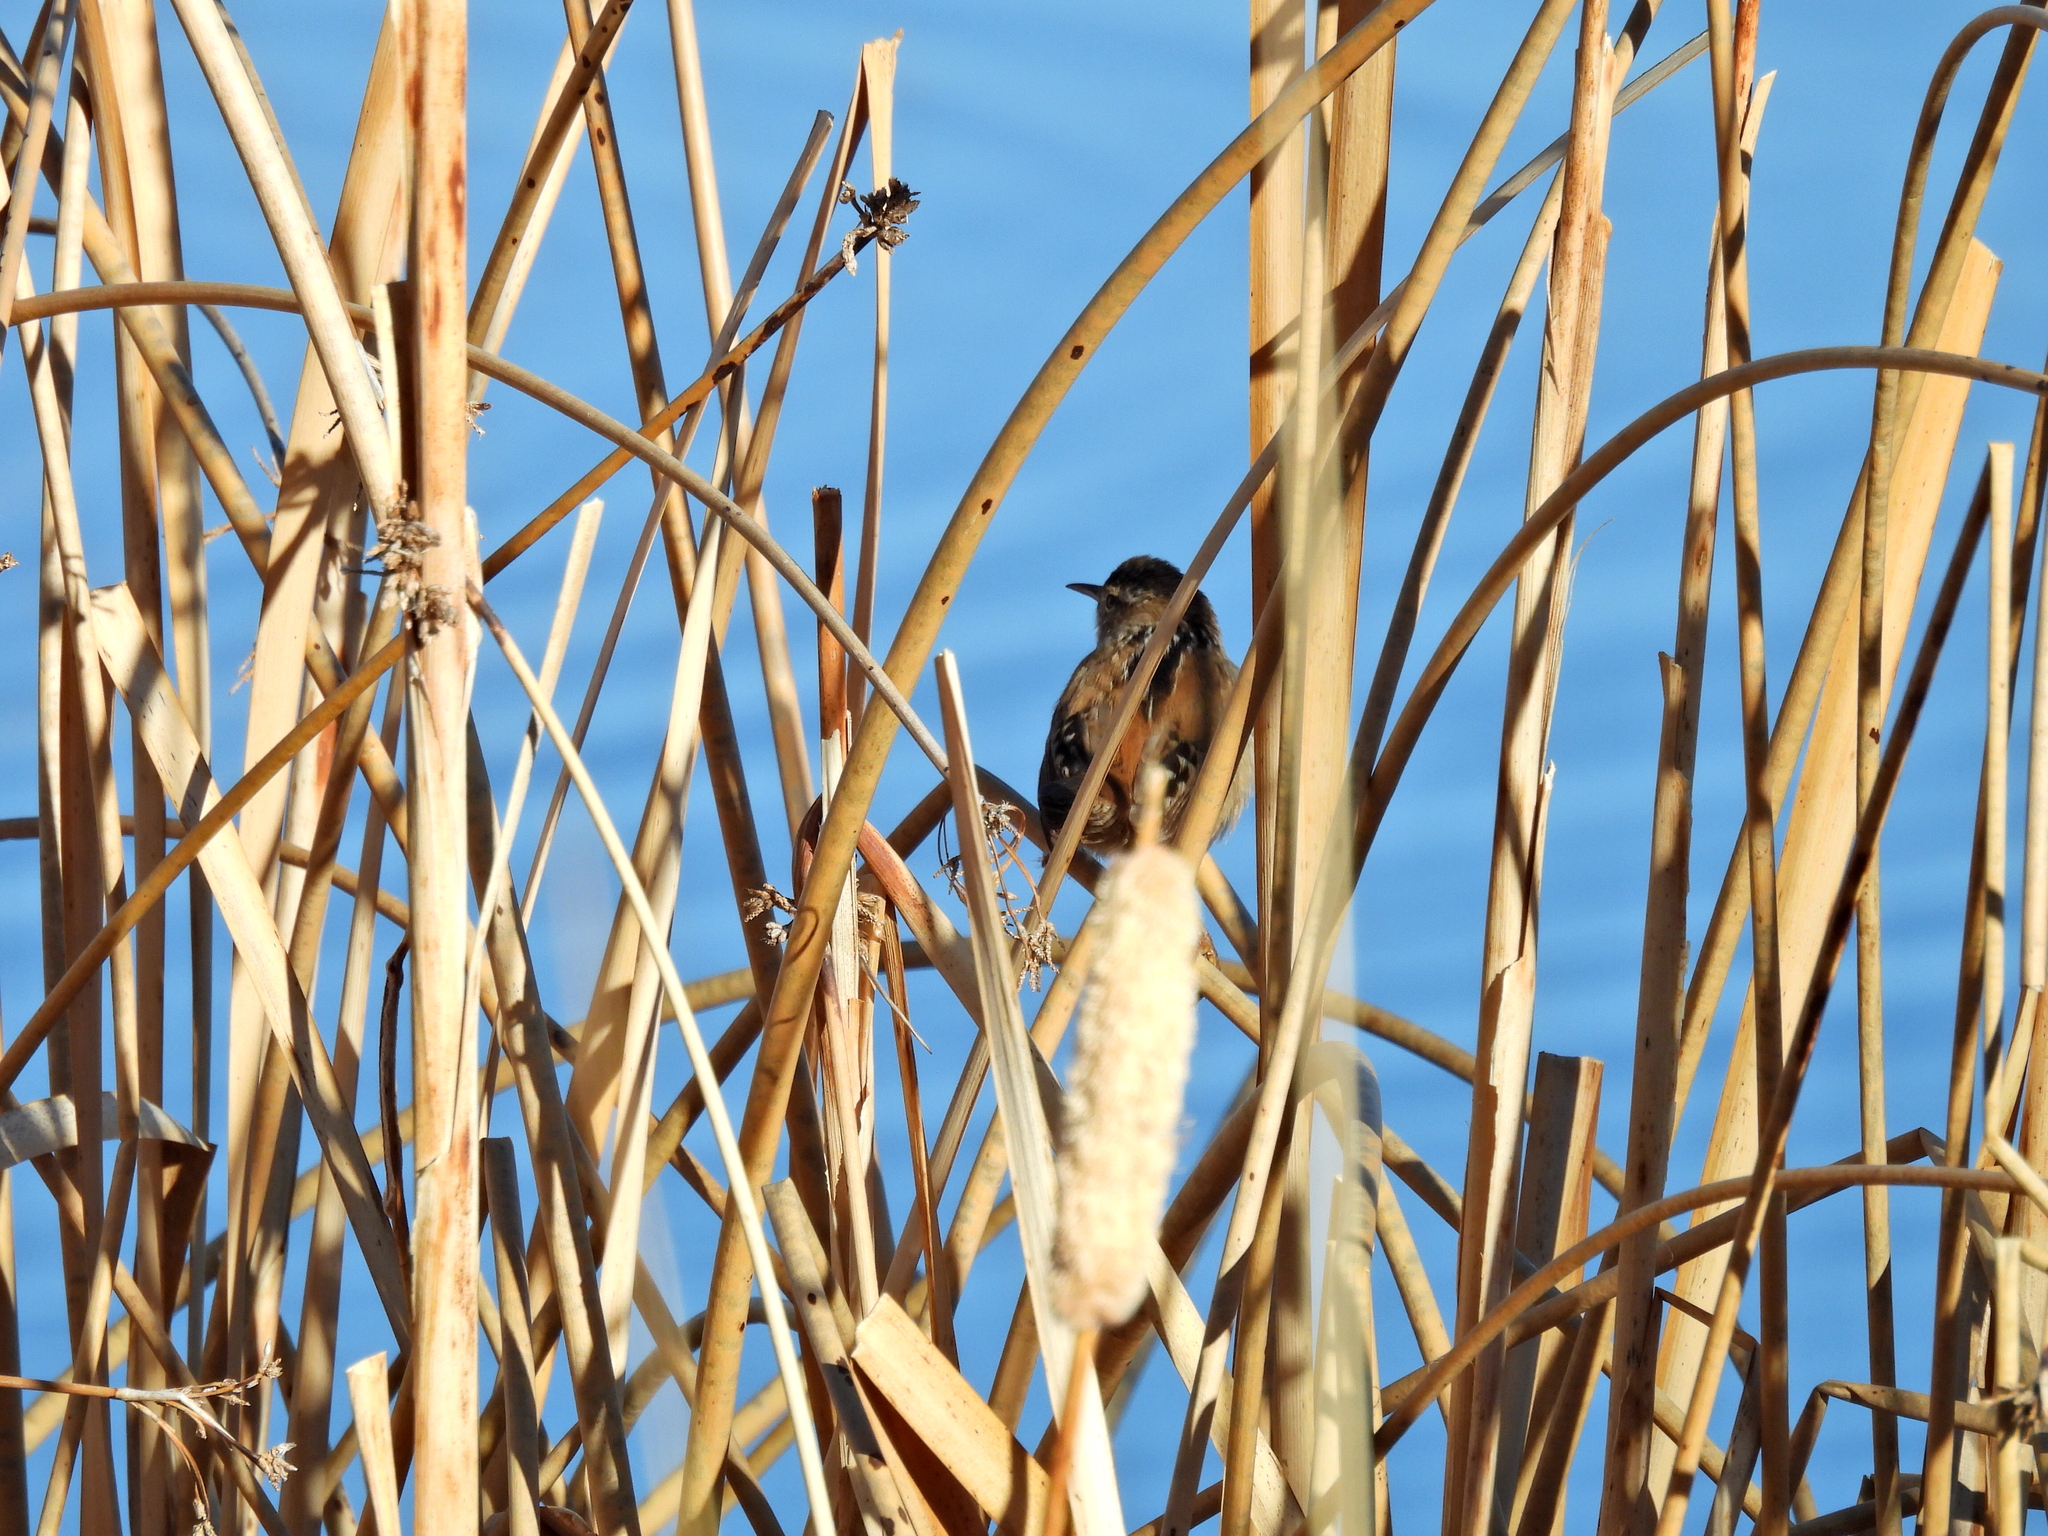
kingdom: Animalia
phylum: Chordata
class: Aves
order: Passeriformes
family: Troglodytidae
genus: Cistothorus
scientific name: Cistothorus palustris
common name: Marsh wren
